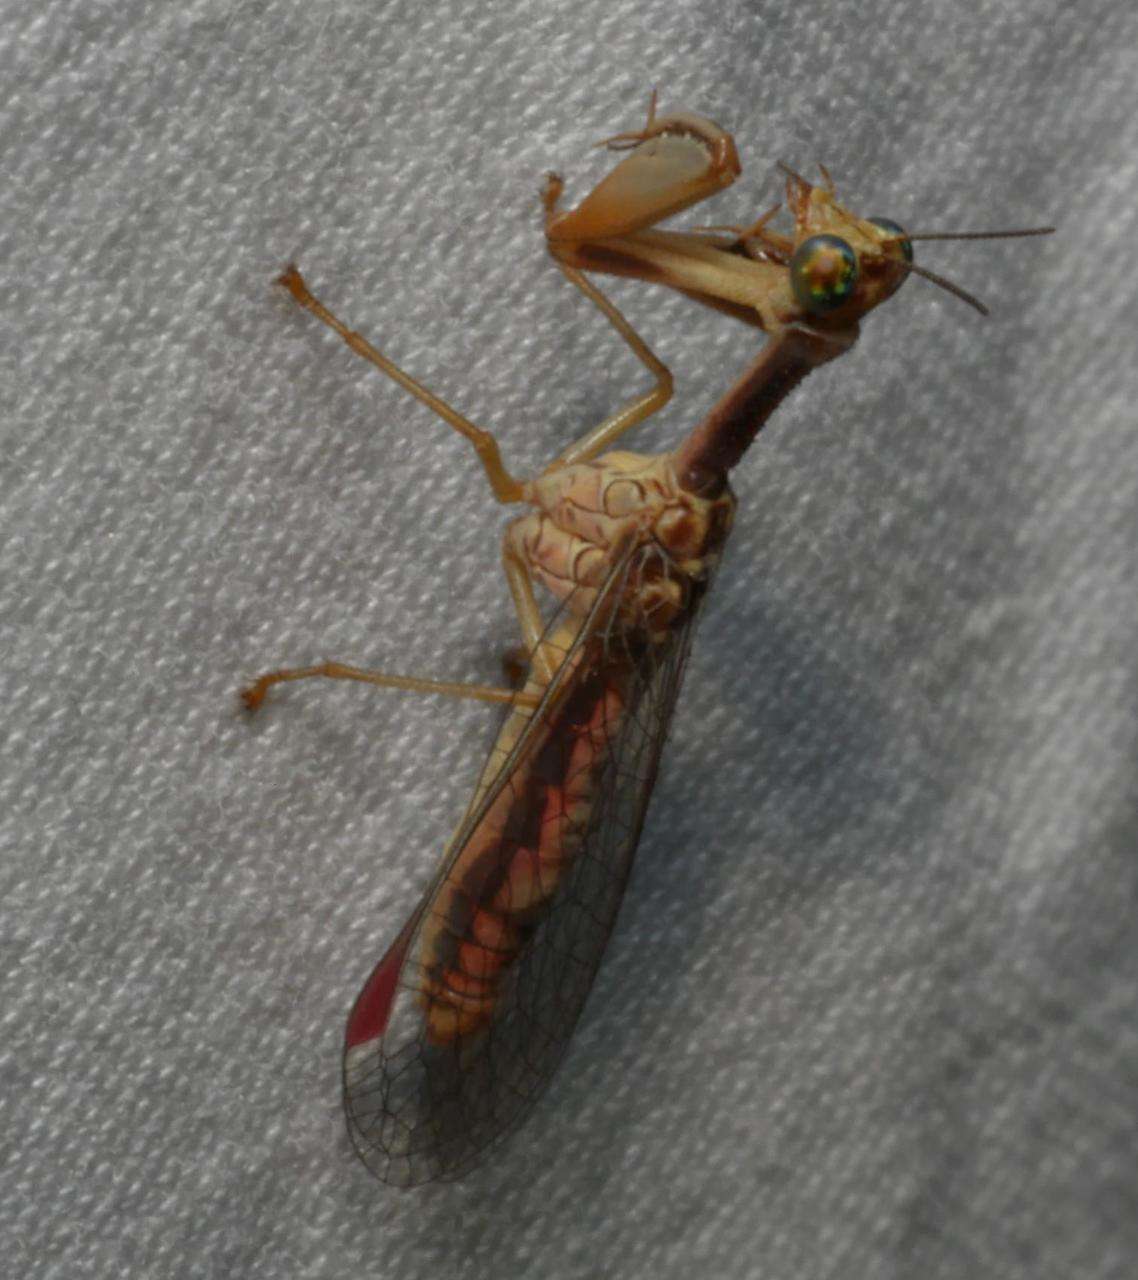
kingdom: Animalia
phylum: Arthropoda
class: Insecta
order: Neuroptera
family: Mantispidae
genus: Campion
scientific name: Campion callosus
